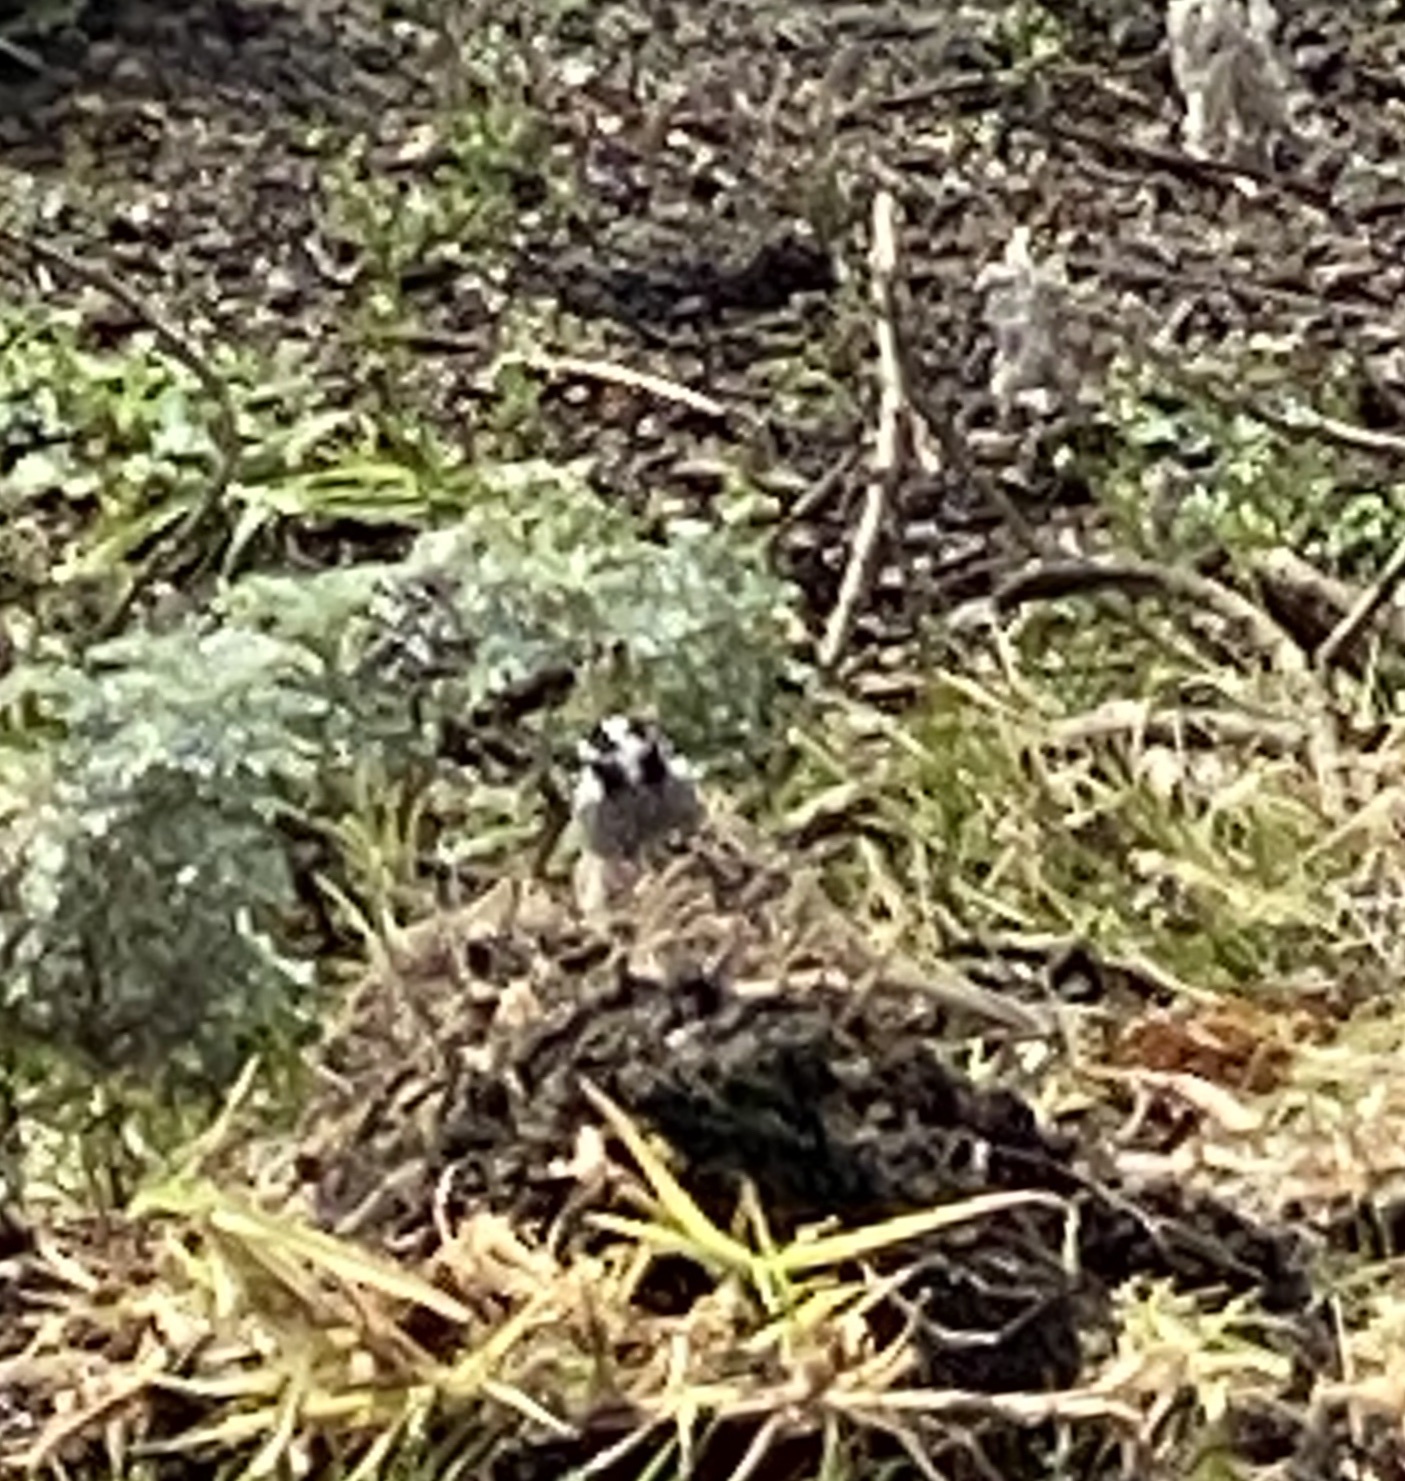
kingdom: Animalia
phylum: Chordata
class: Aves
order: Passeriformes
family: Passerellidae
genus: Zonotrichia
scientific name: Zonotrichia leucophrys
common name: White-crowned sparrow
